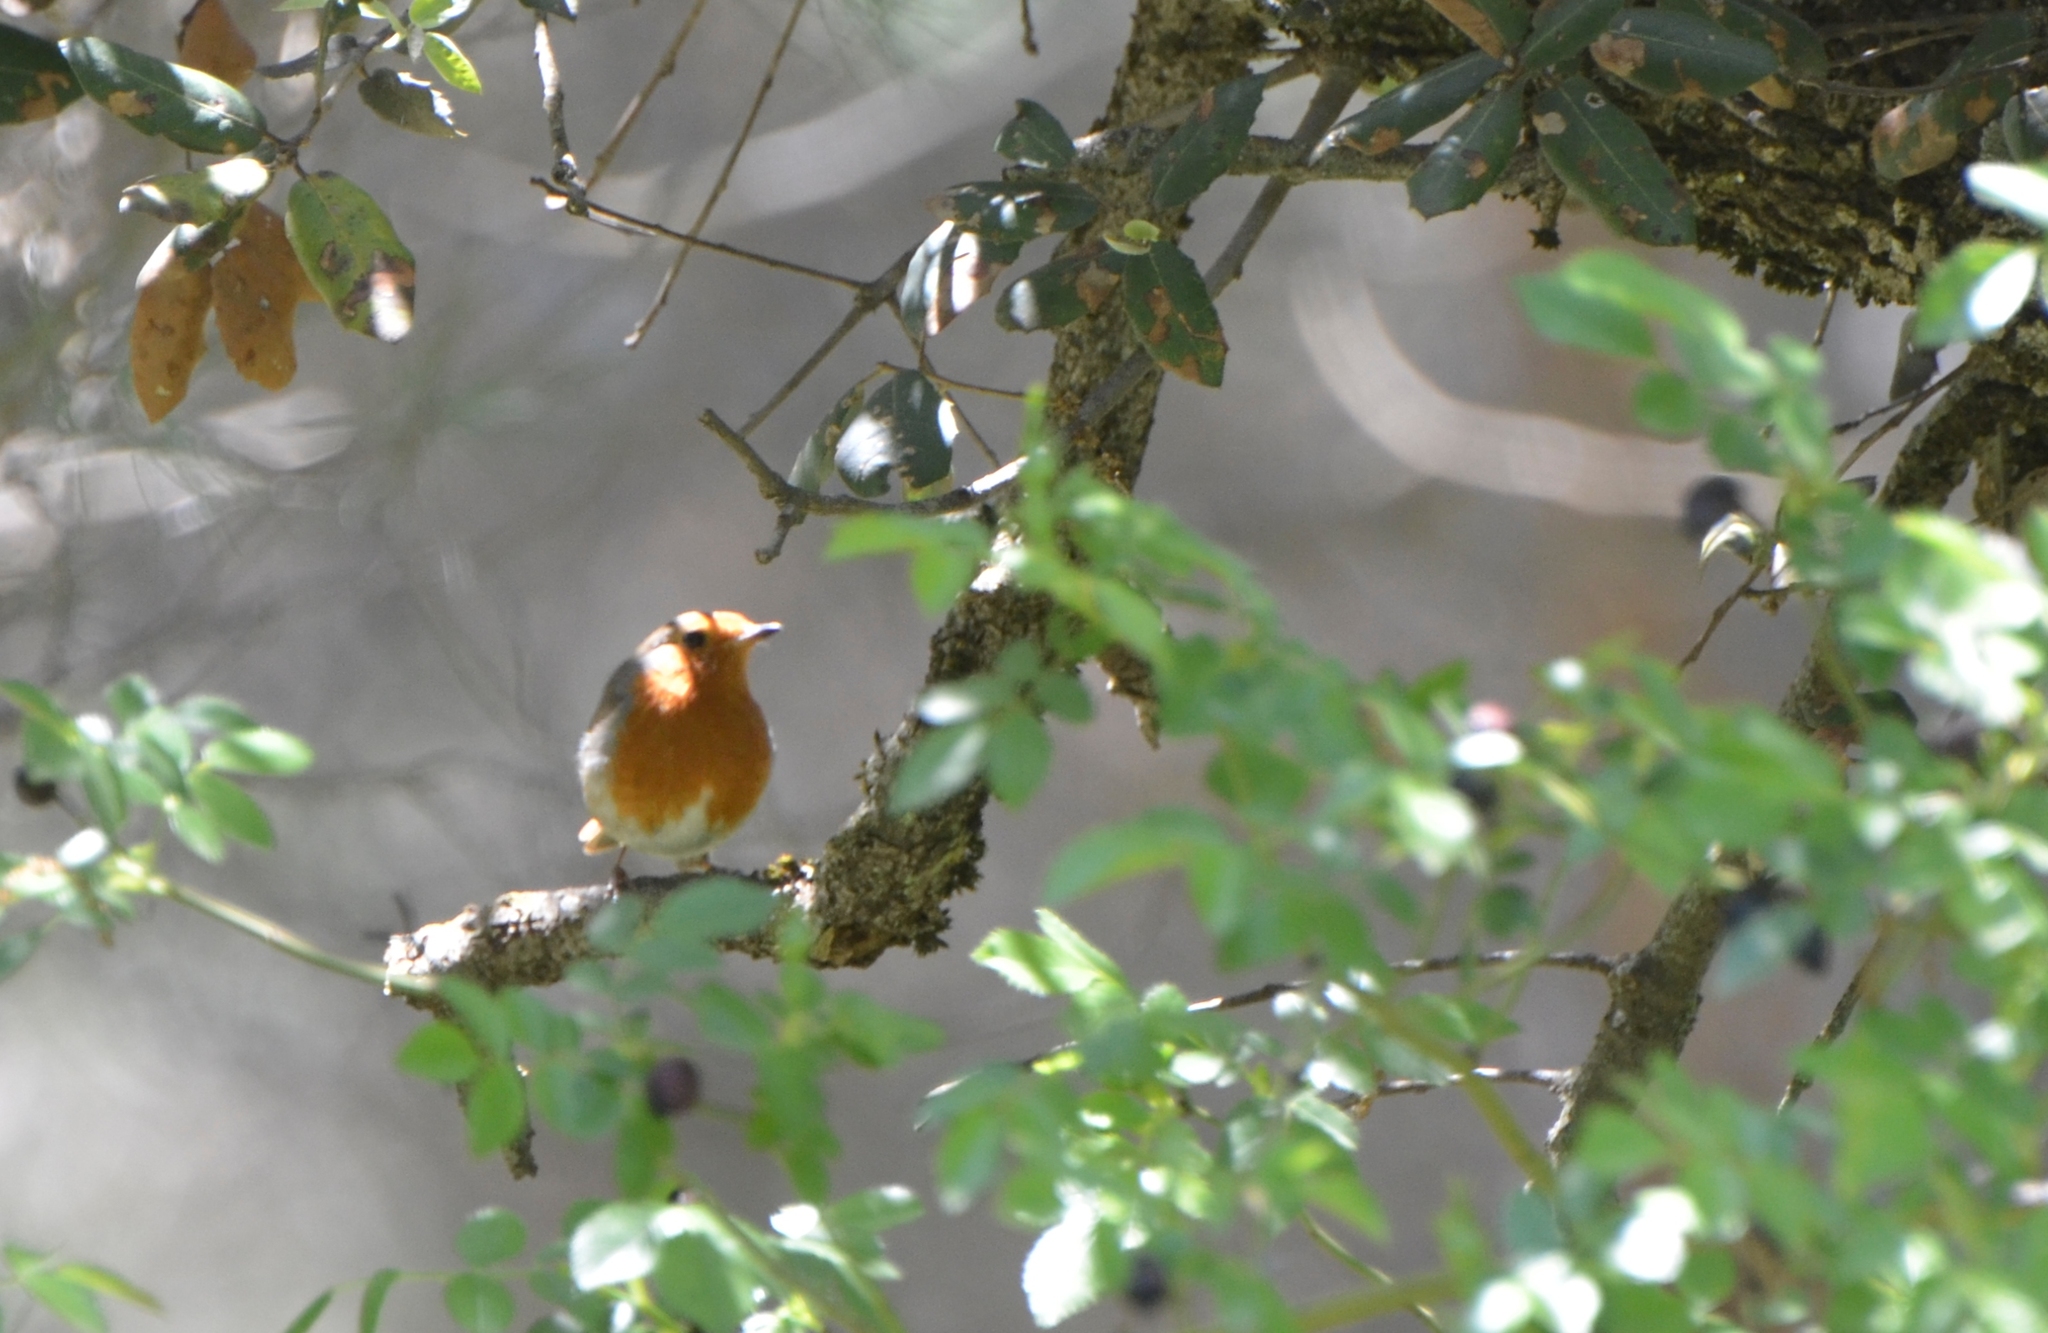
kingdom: Animalia
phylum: Chordata
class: Aves
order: Passeriformes
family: Muscicapidae
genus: Erithacus
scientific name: Erithacus rubecula
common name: European robin
